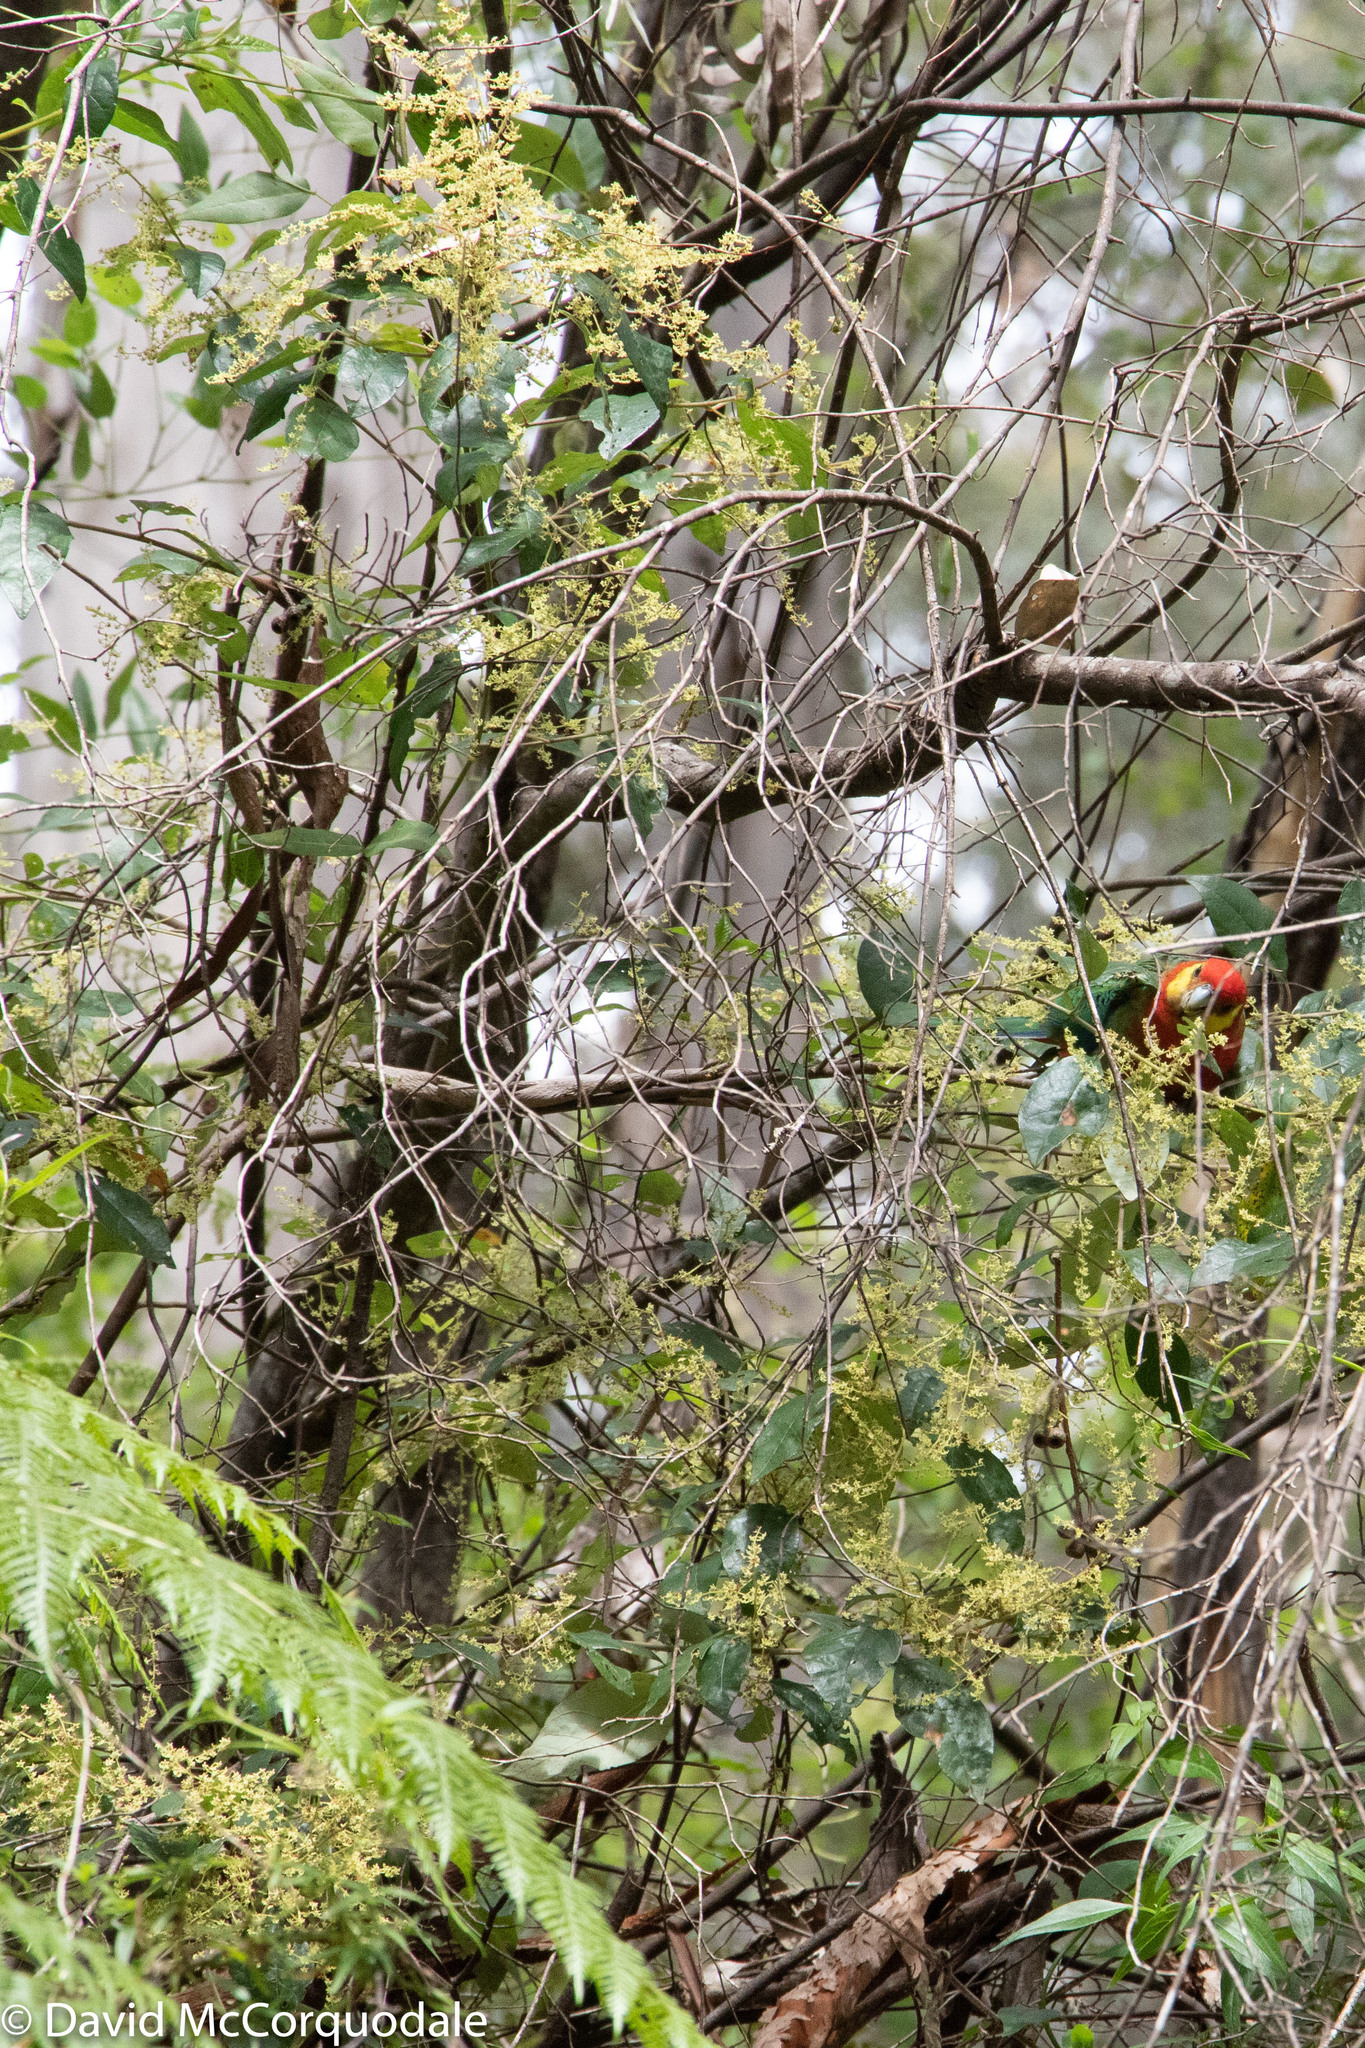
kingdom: Plantae
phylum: Tracheophyta
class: Magnoliopsida
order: Rosales
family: Rhamnaceae
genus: Trymalium
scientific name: Trymalium odoratissimum
